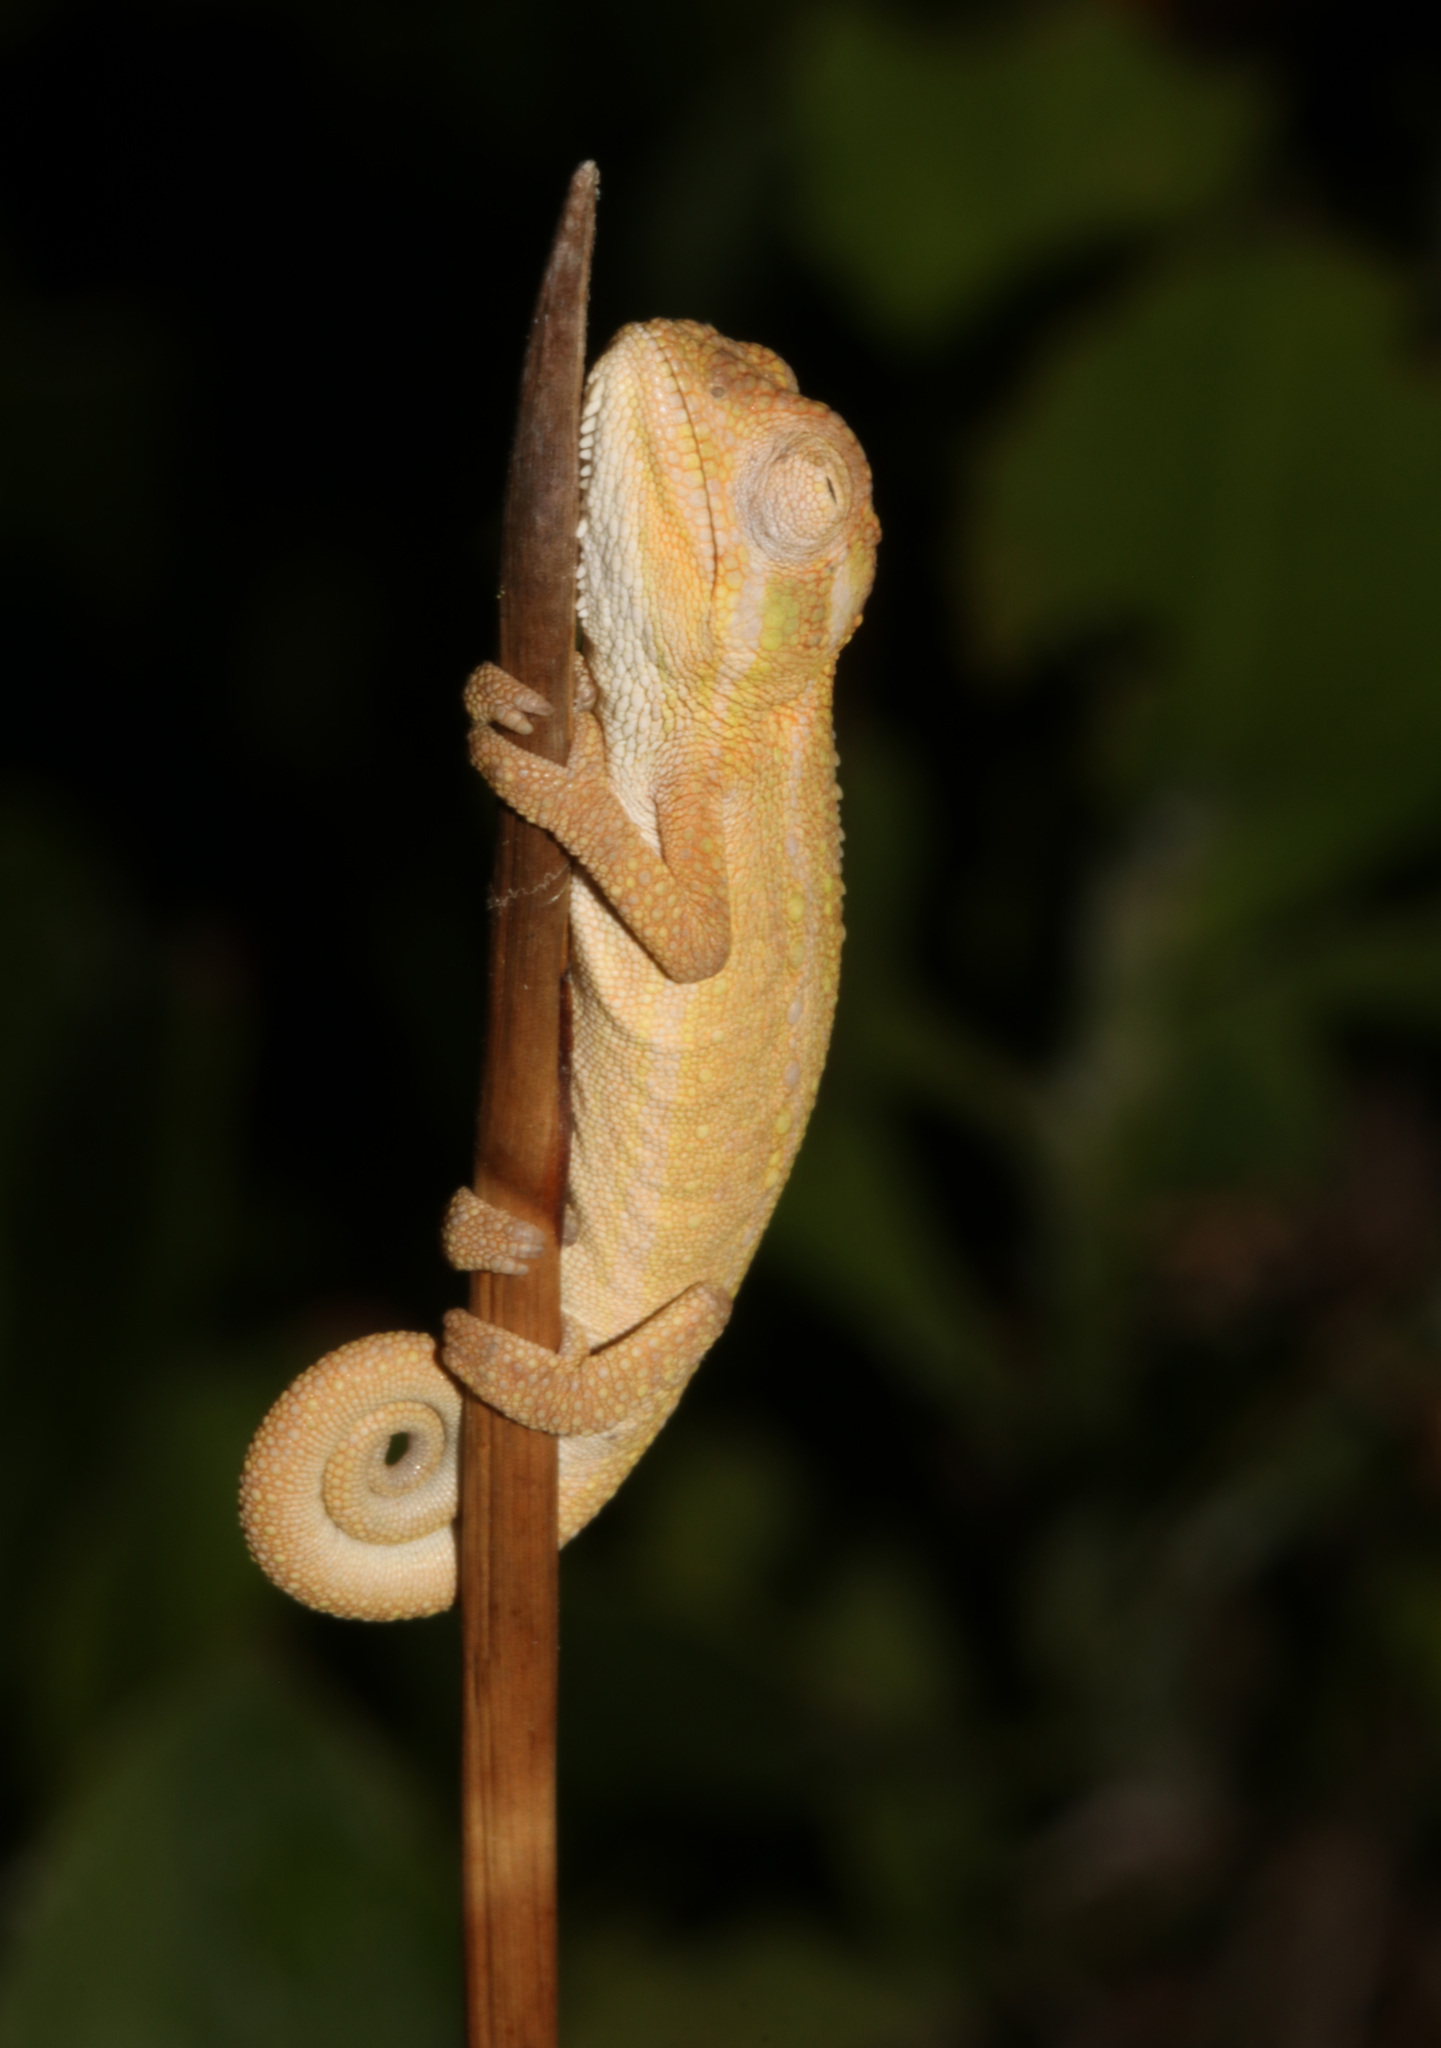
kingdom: Animalia
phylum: Chordata
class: Squamata
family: Chamaeleonidae
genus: Bradypodion
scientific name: Bradypodion pumilum
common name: Cape dwarf chameleon
